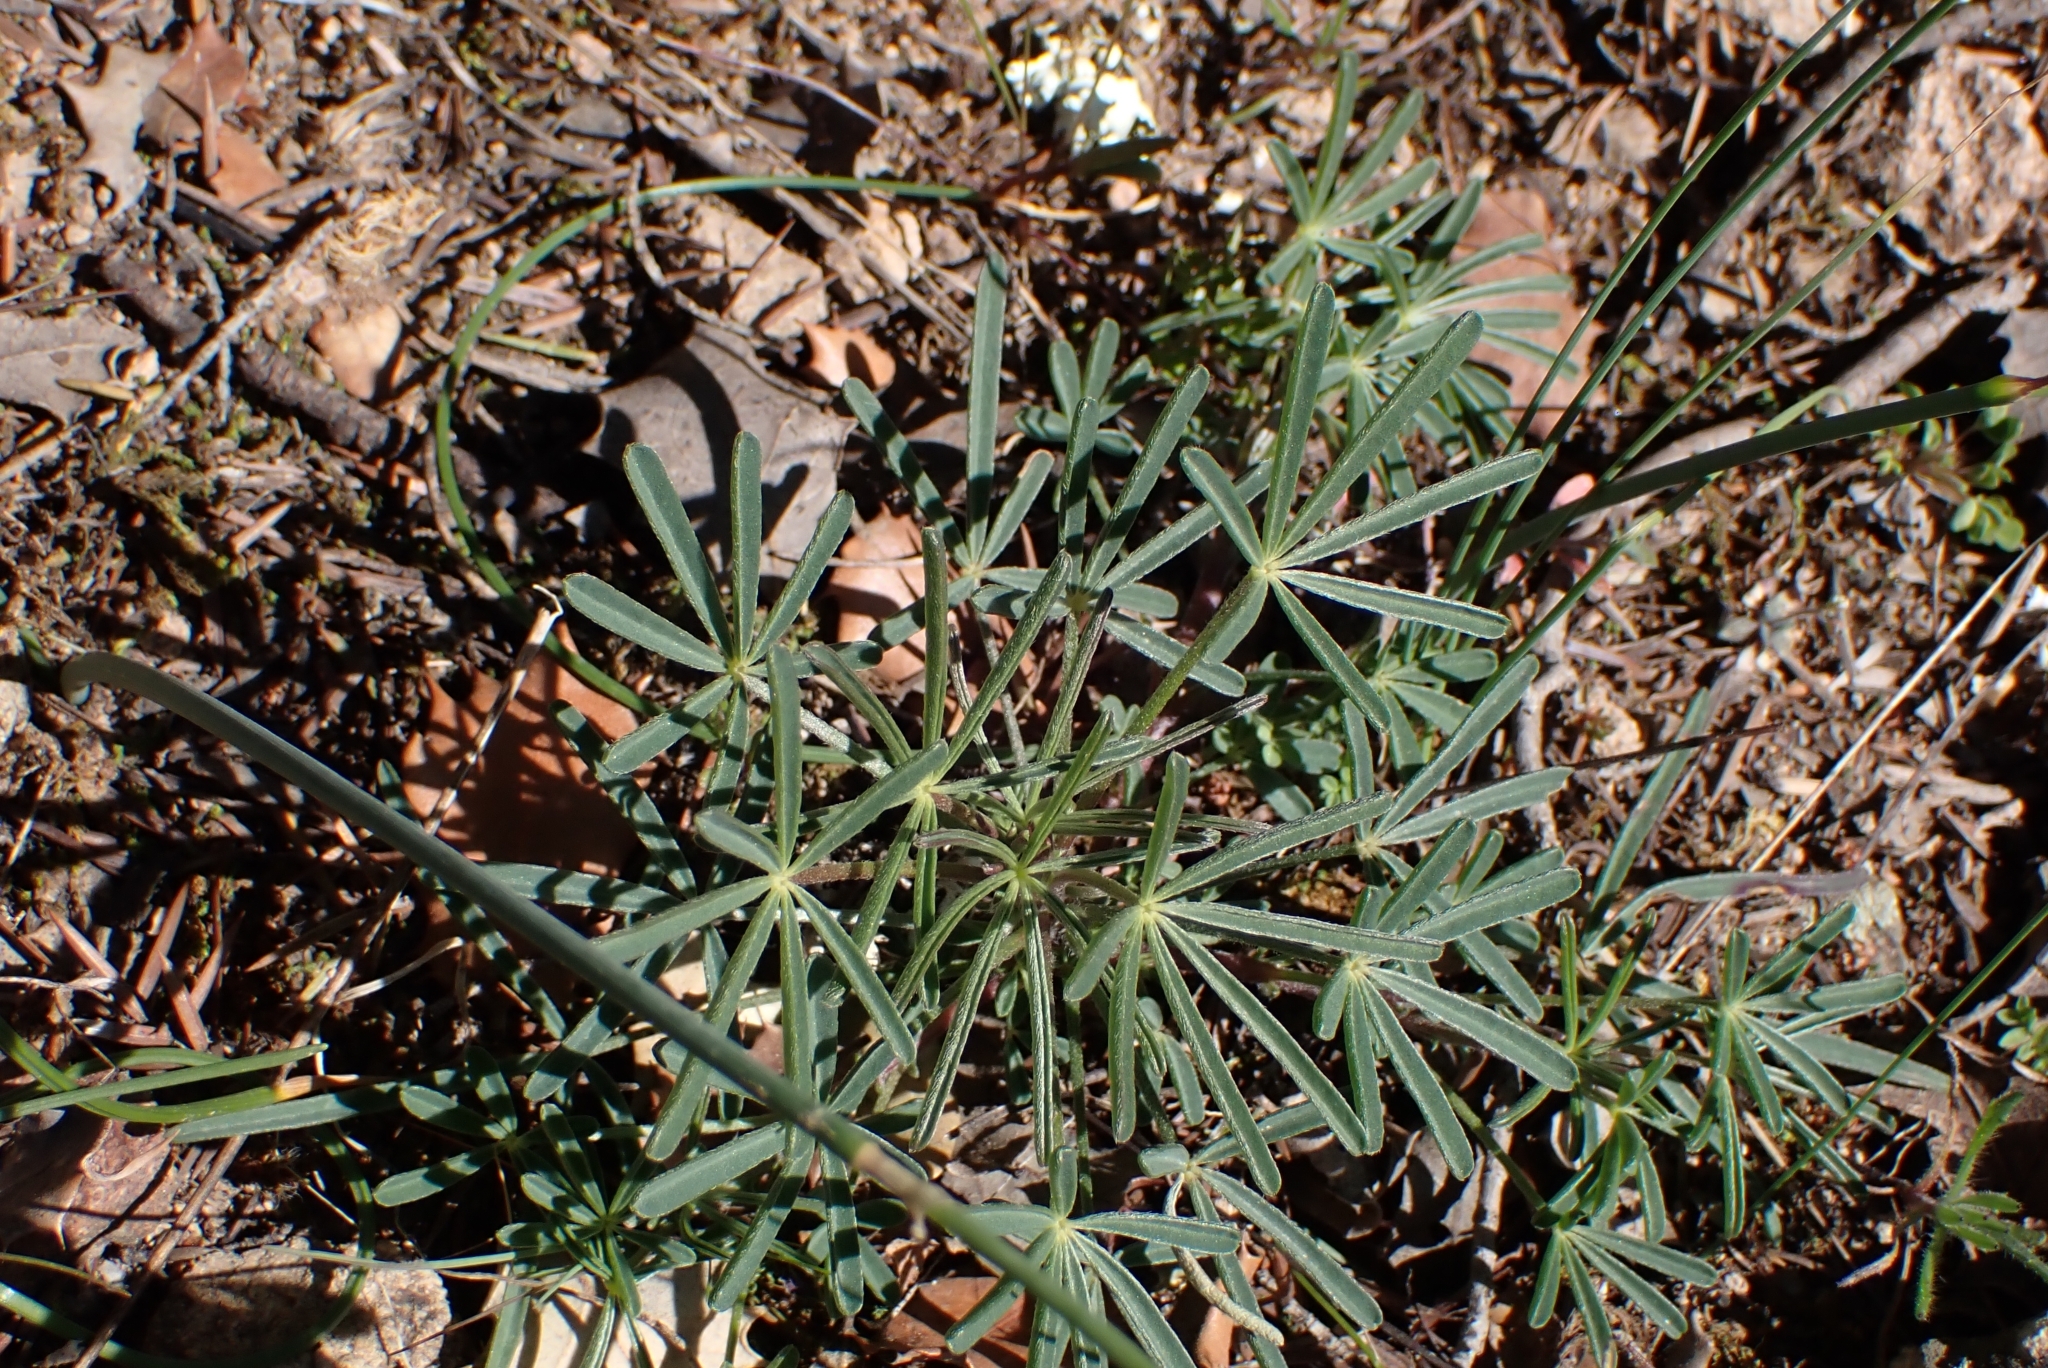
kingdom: Plantae
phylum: Tracheophyta
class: Magnoliopsida
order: Fabales
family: Fabaceae
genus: Lupinus
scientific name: Lupinus angustifolius
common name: Narrow-leaved lupin
